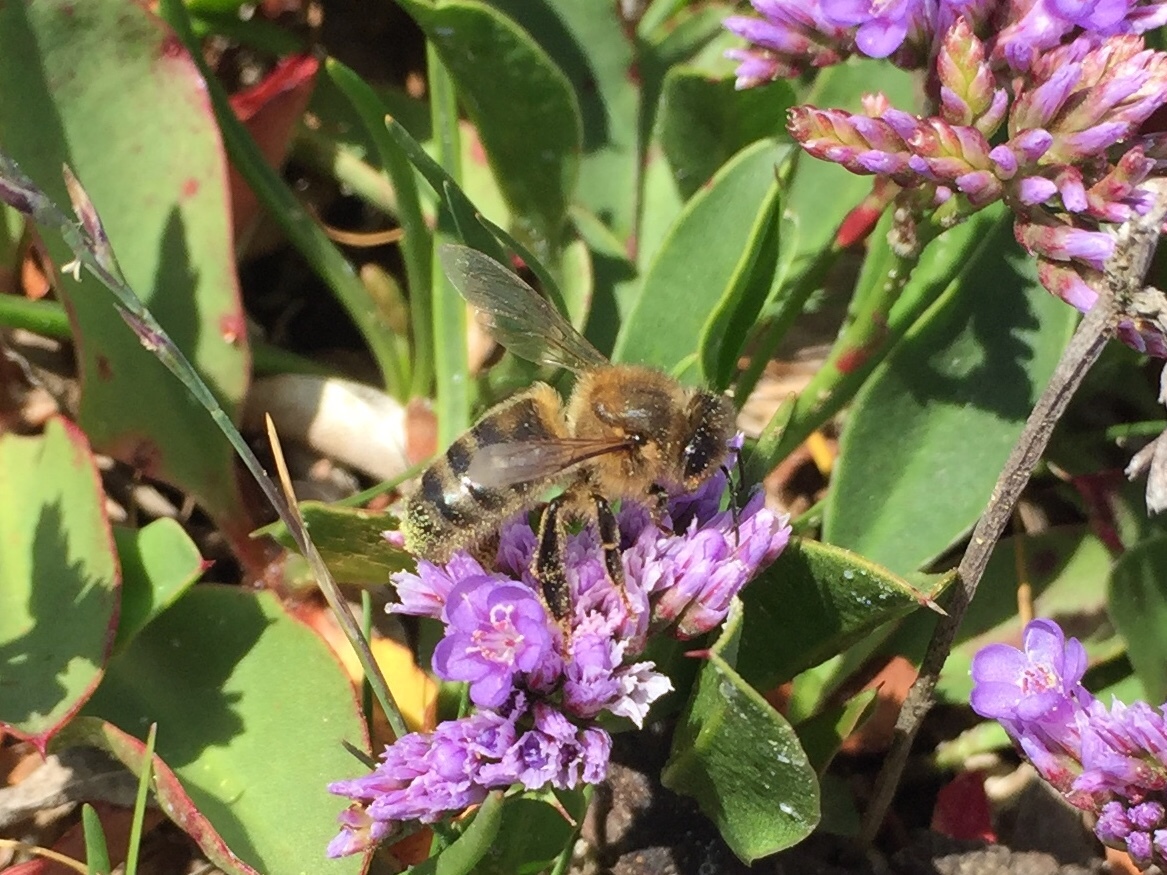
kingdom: Animalia
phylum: Arthropoda
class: Insecta
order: Hymenoptera
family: Apidae
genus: Apis
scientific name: Apis mellifera
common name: Honey bee
